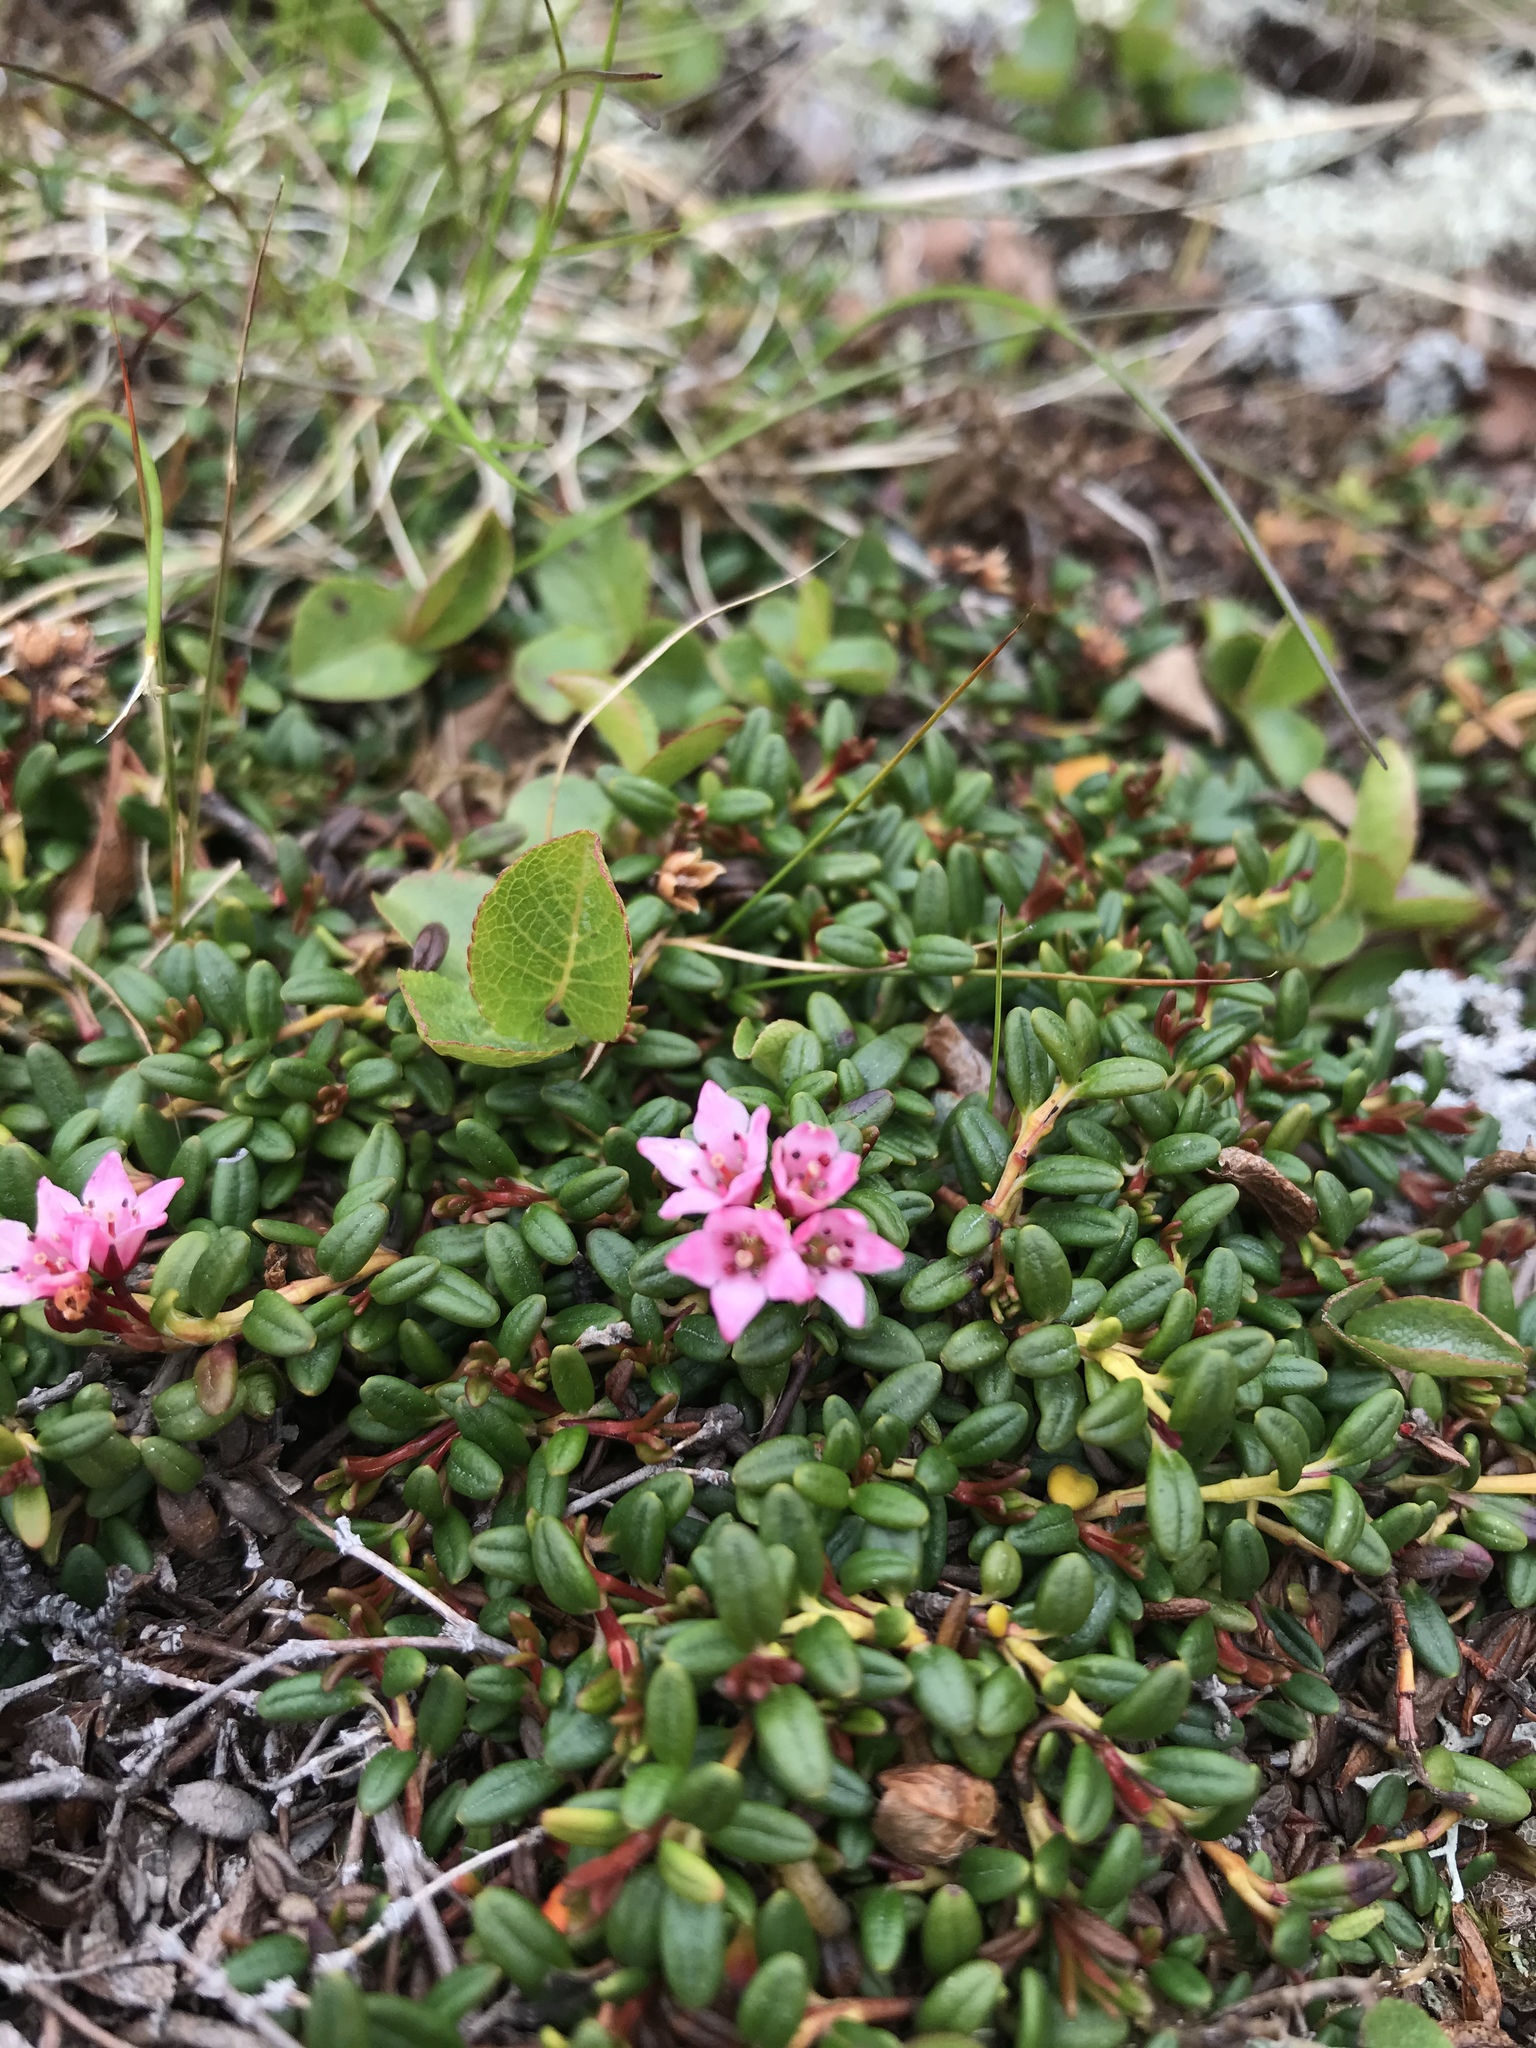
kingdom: Plantae
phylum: Tracheophyta
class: Magnoliopsida
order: Ericales
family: Ericaceae
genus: Kalmia
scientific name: Kalmia procumbens
